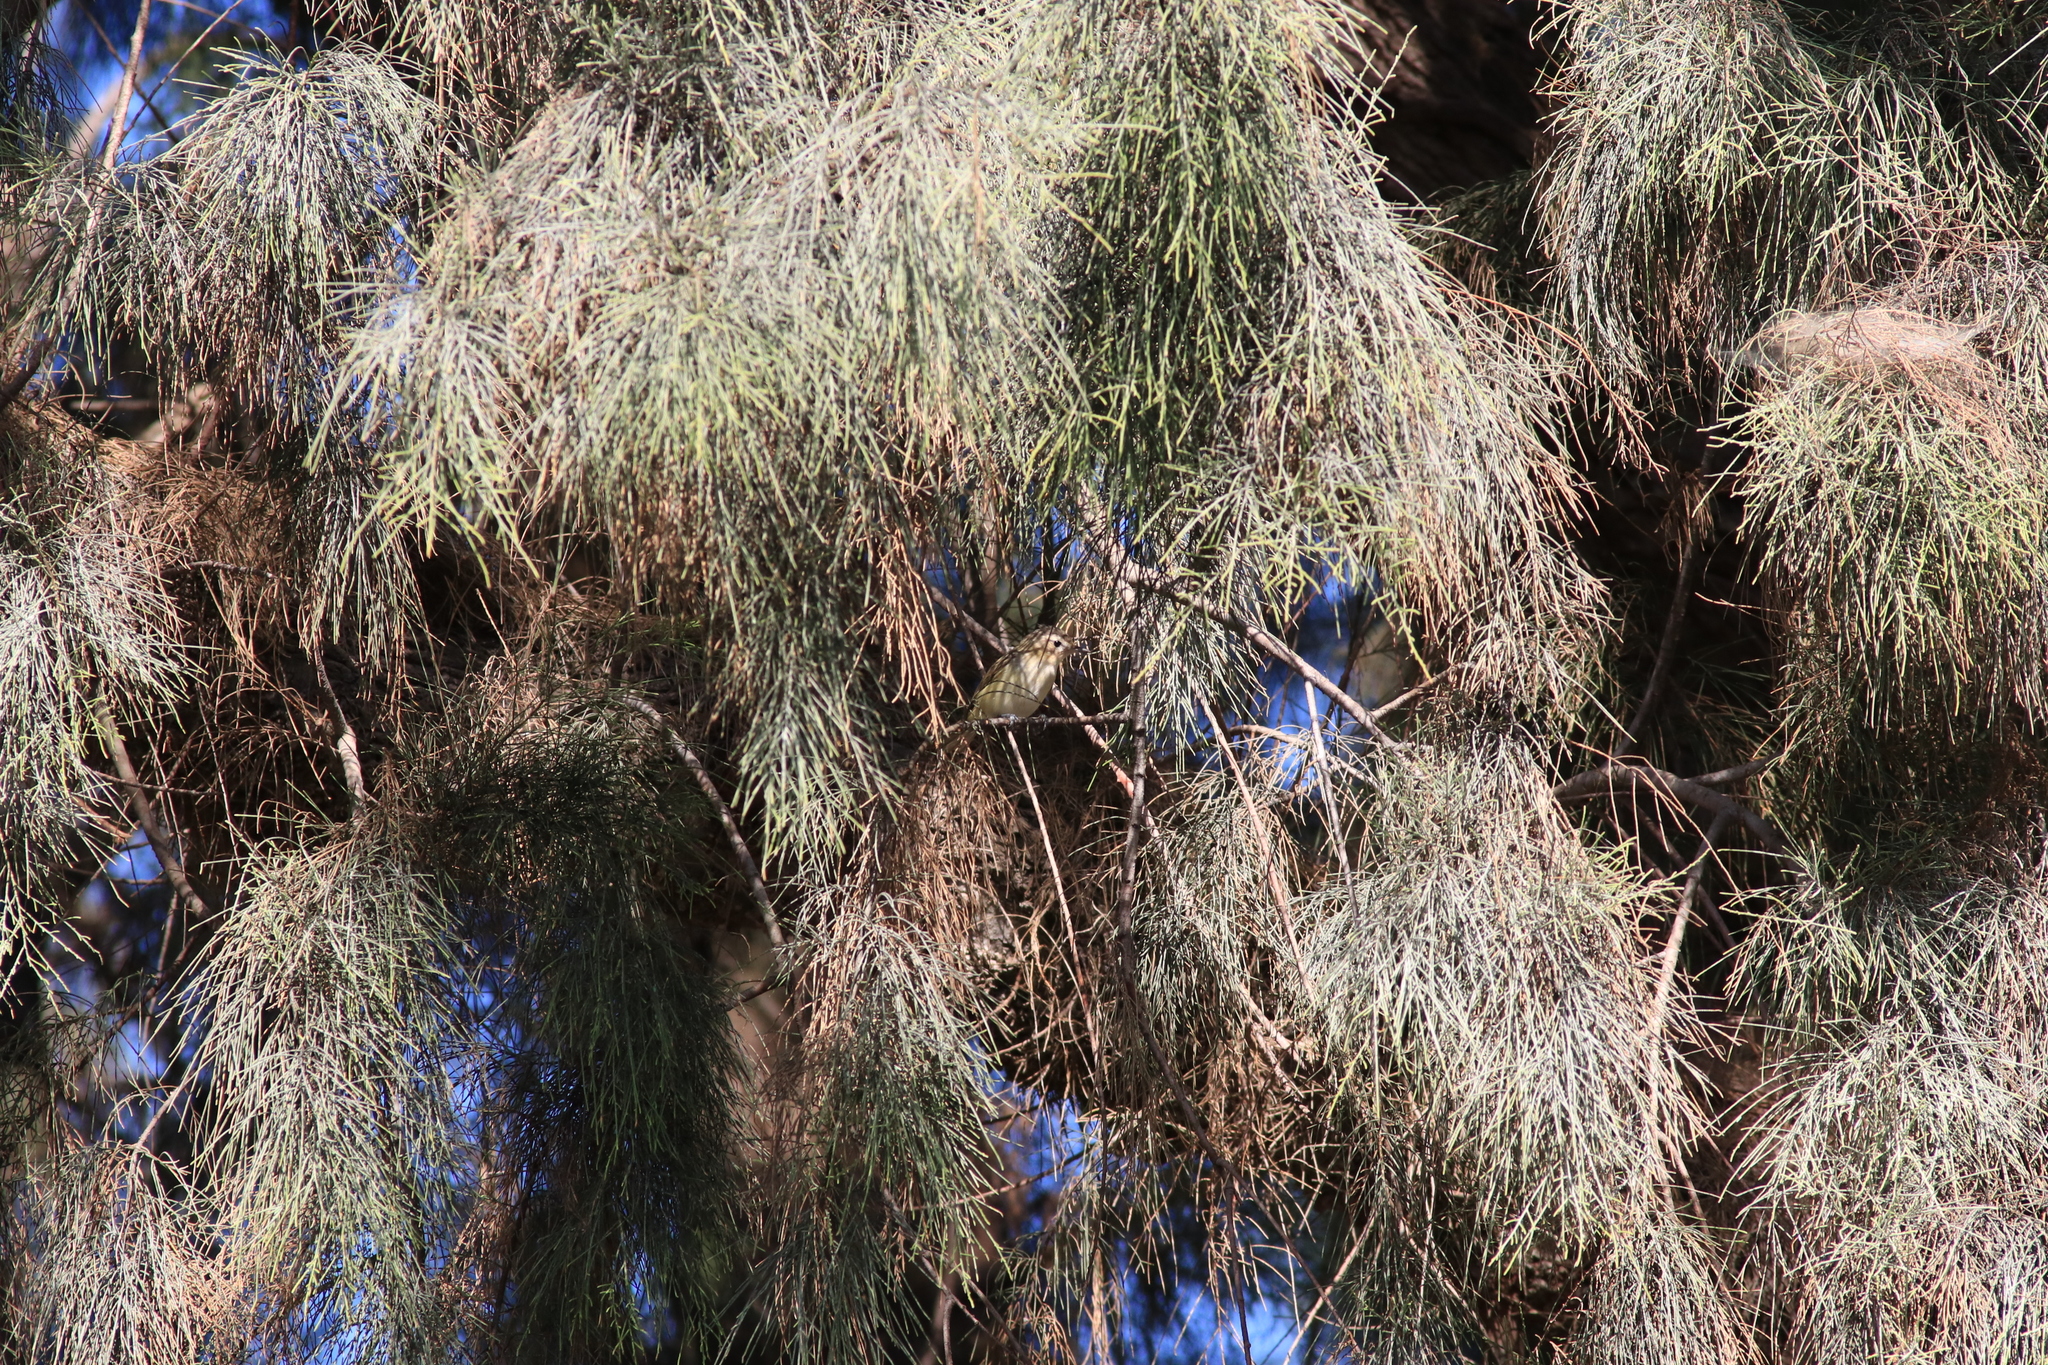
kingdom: Animalia
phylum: Chordata
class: Aves
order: Passeriformes
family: Vireonidae
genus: Vireo
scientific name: Vireo gilvus
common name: Warbling vireo
